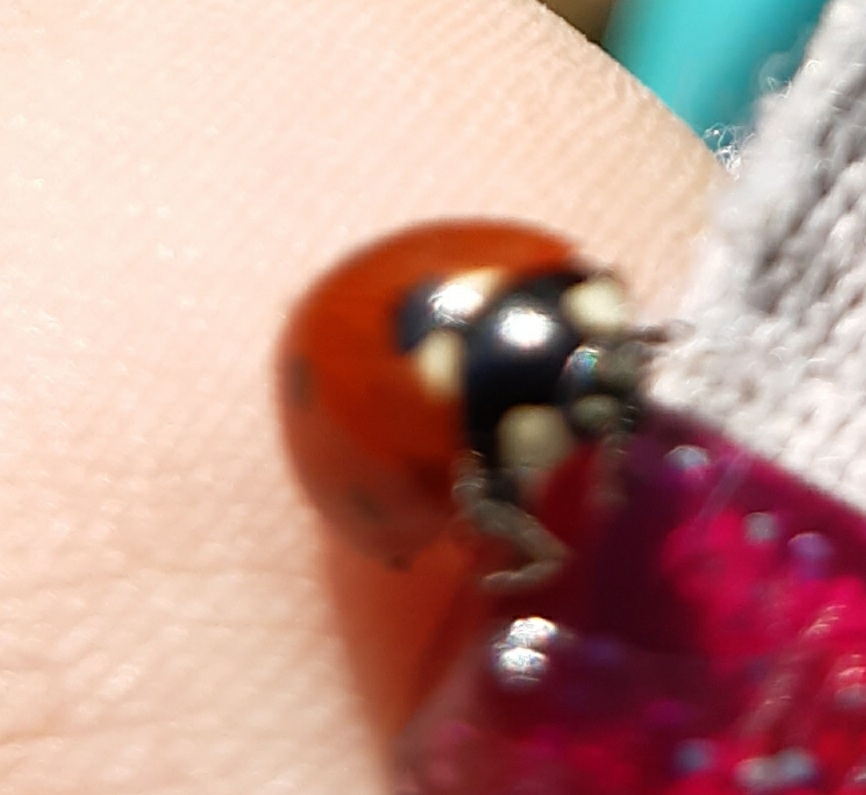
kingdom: Animalia
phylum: Arthropoda
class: Insecta
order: Coleoptera
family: Coccinellidae
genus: Coccinella
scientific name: Coccinella septempunctata
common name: Sevenspotted lady beetle
